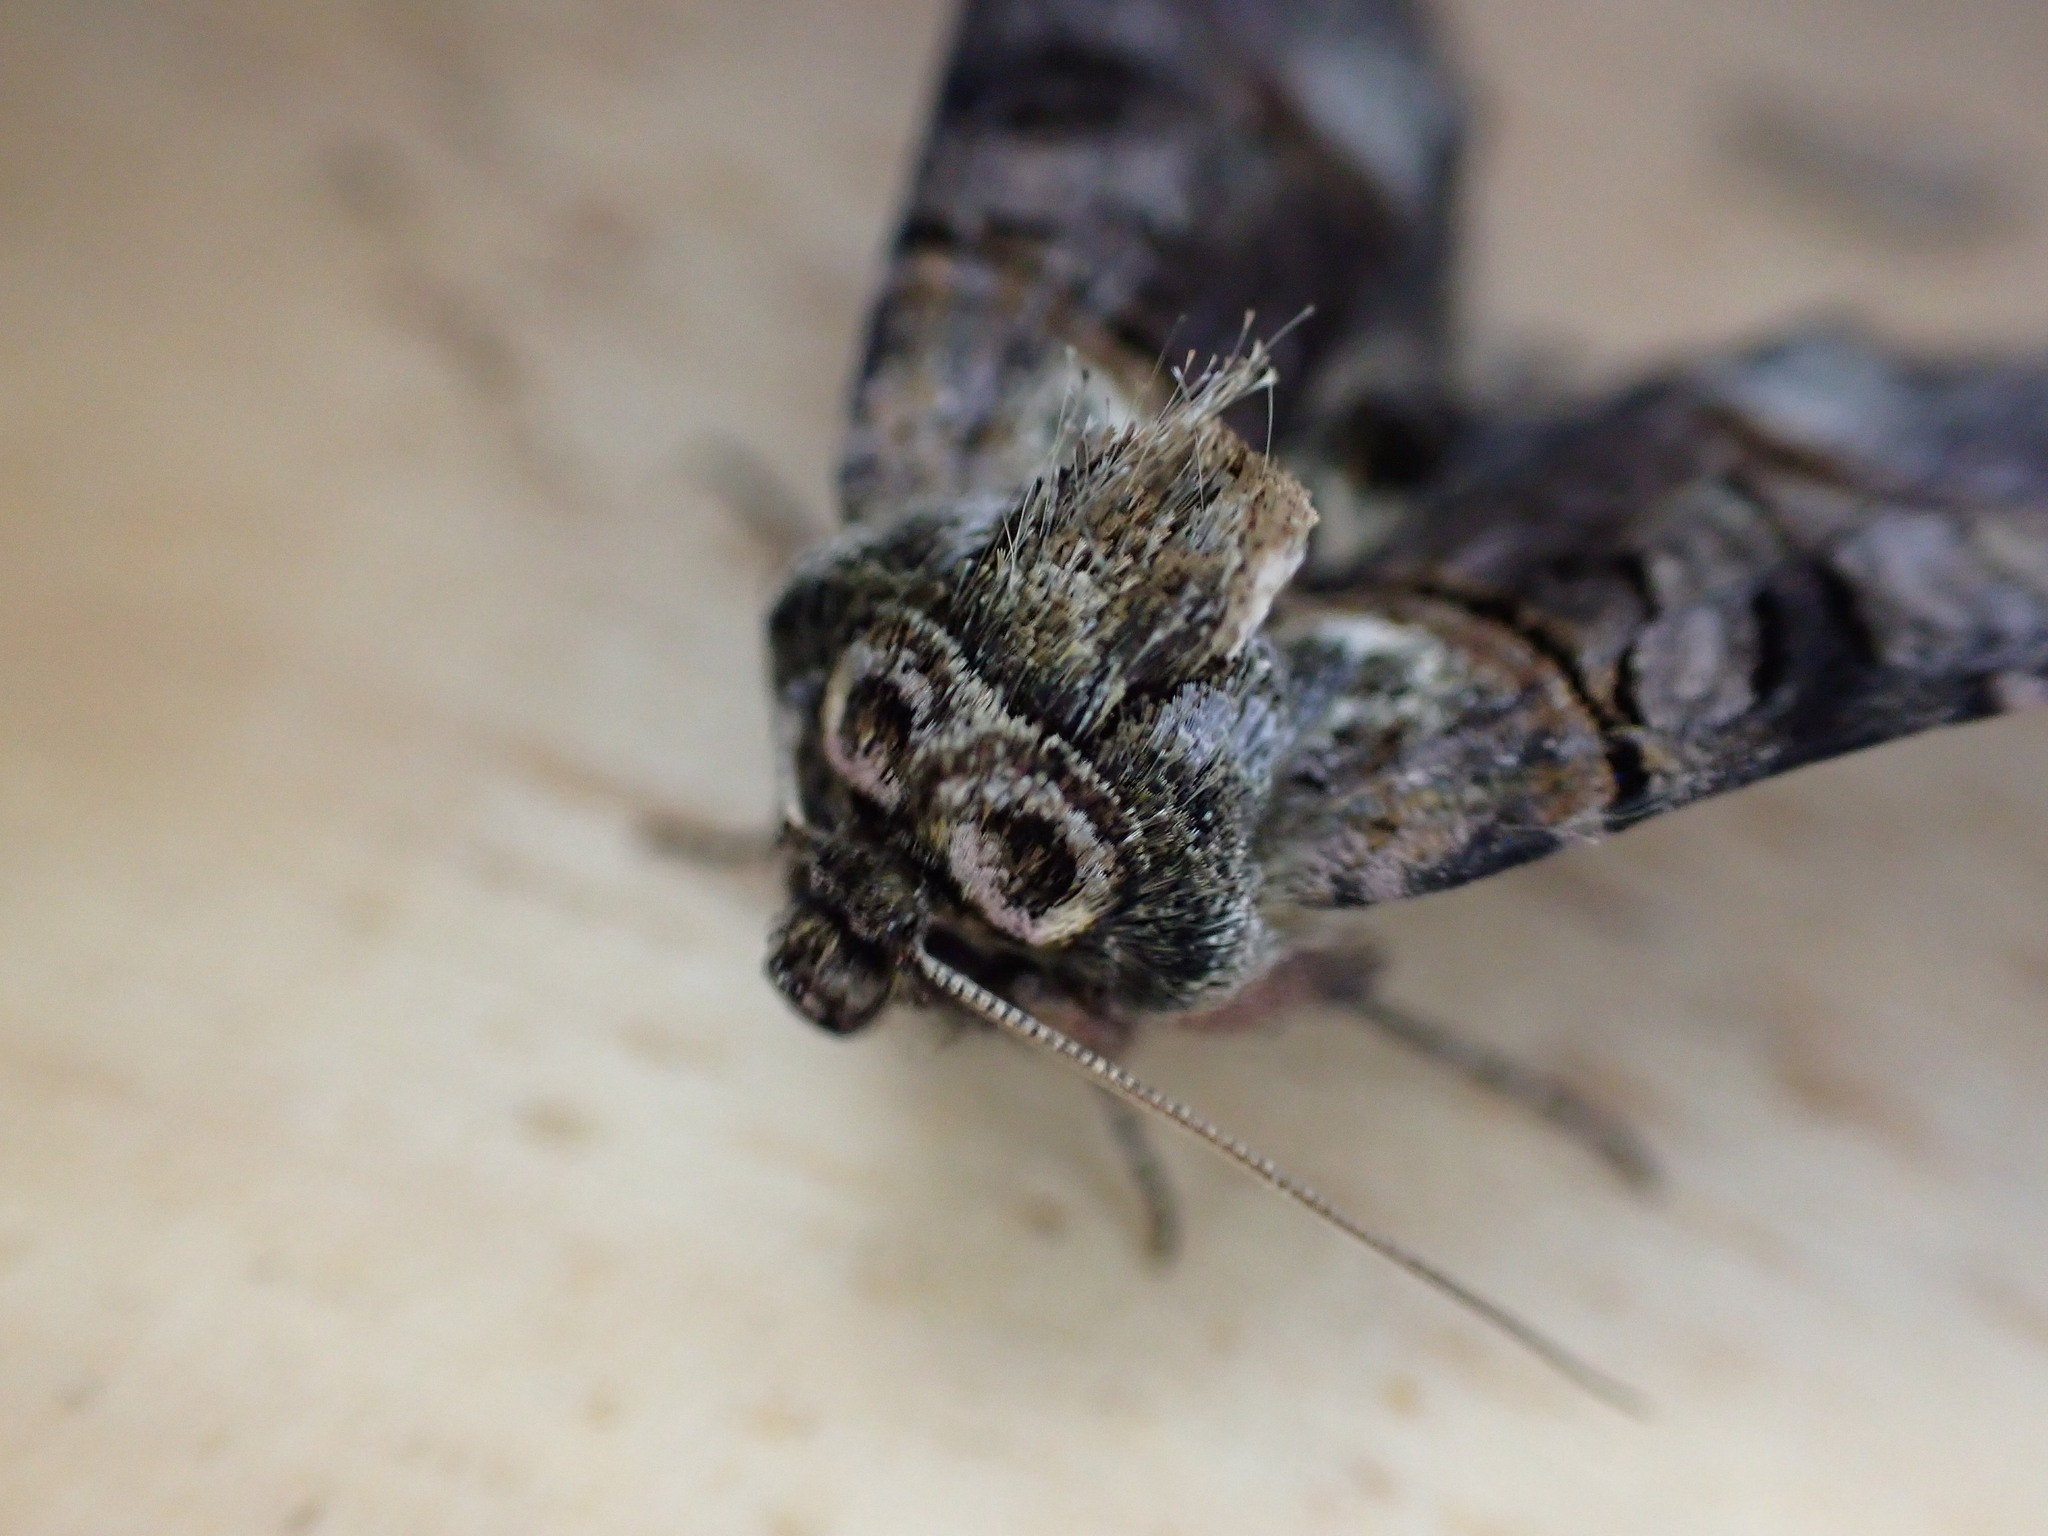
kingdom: Animalia
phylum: Arthropoda
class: Insecta
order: Lepidoptera
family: Noctuidae
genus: Abrostola
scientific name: Abrostola tripartita
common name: Spectacle
